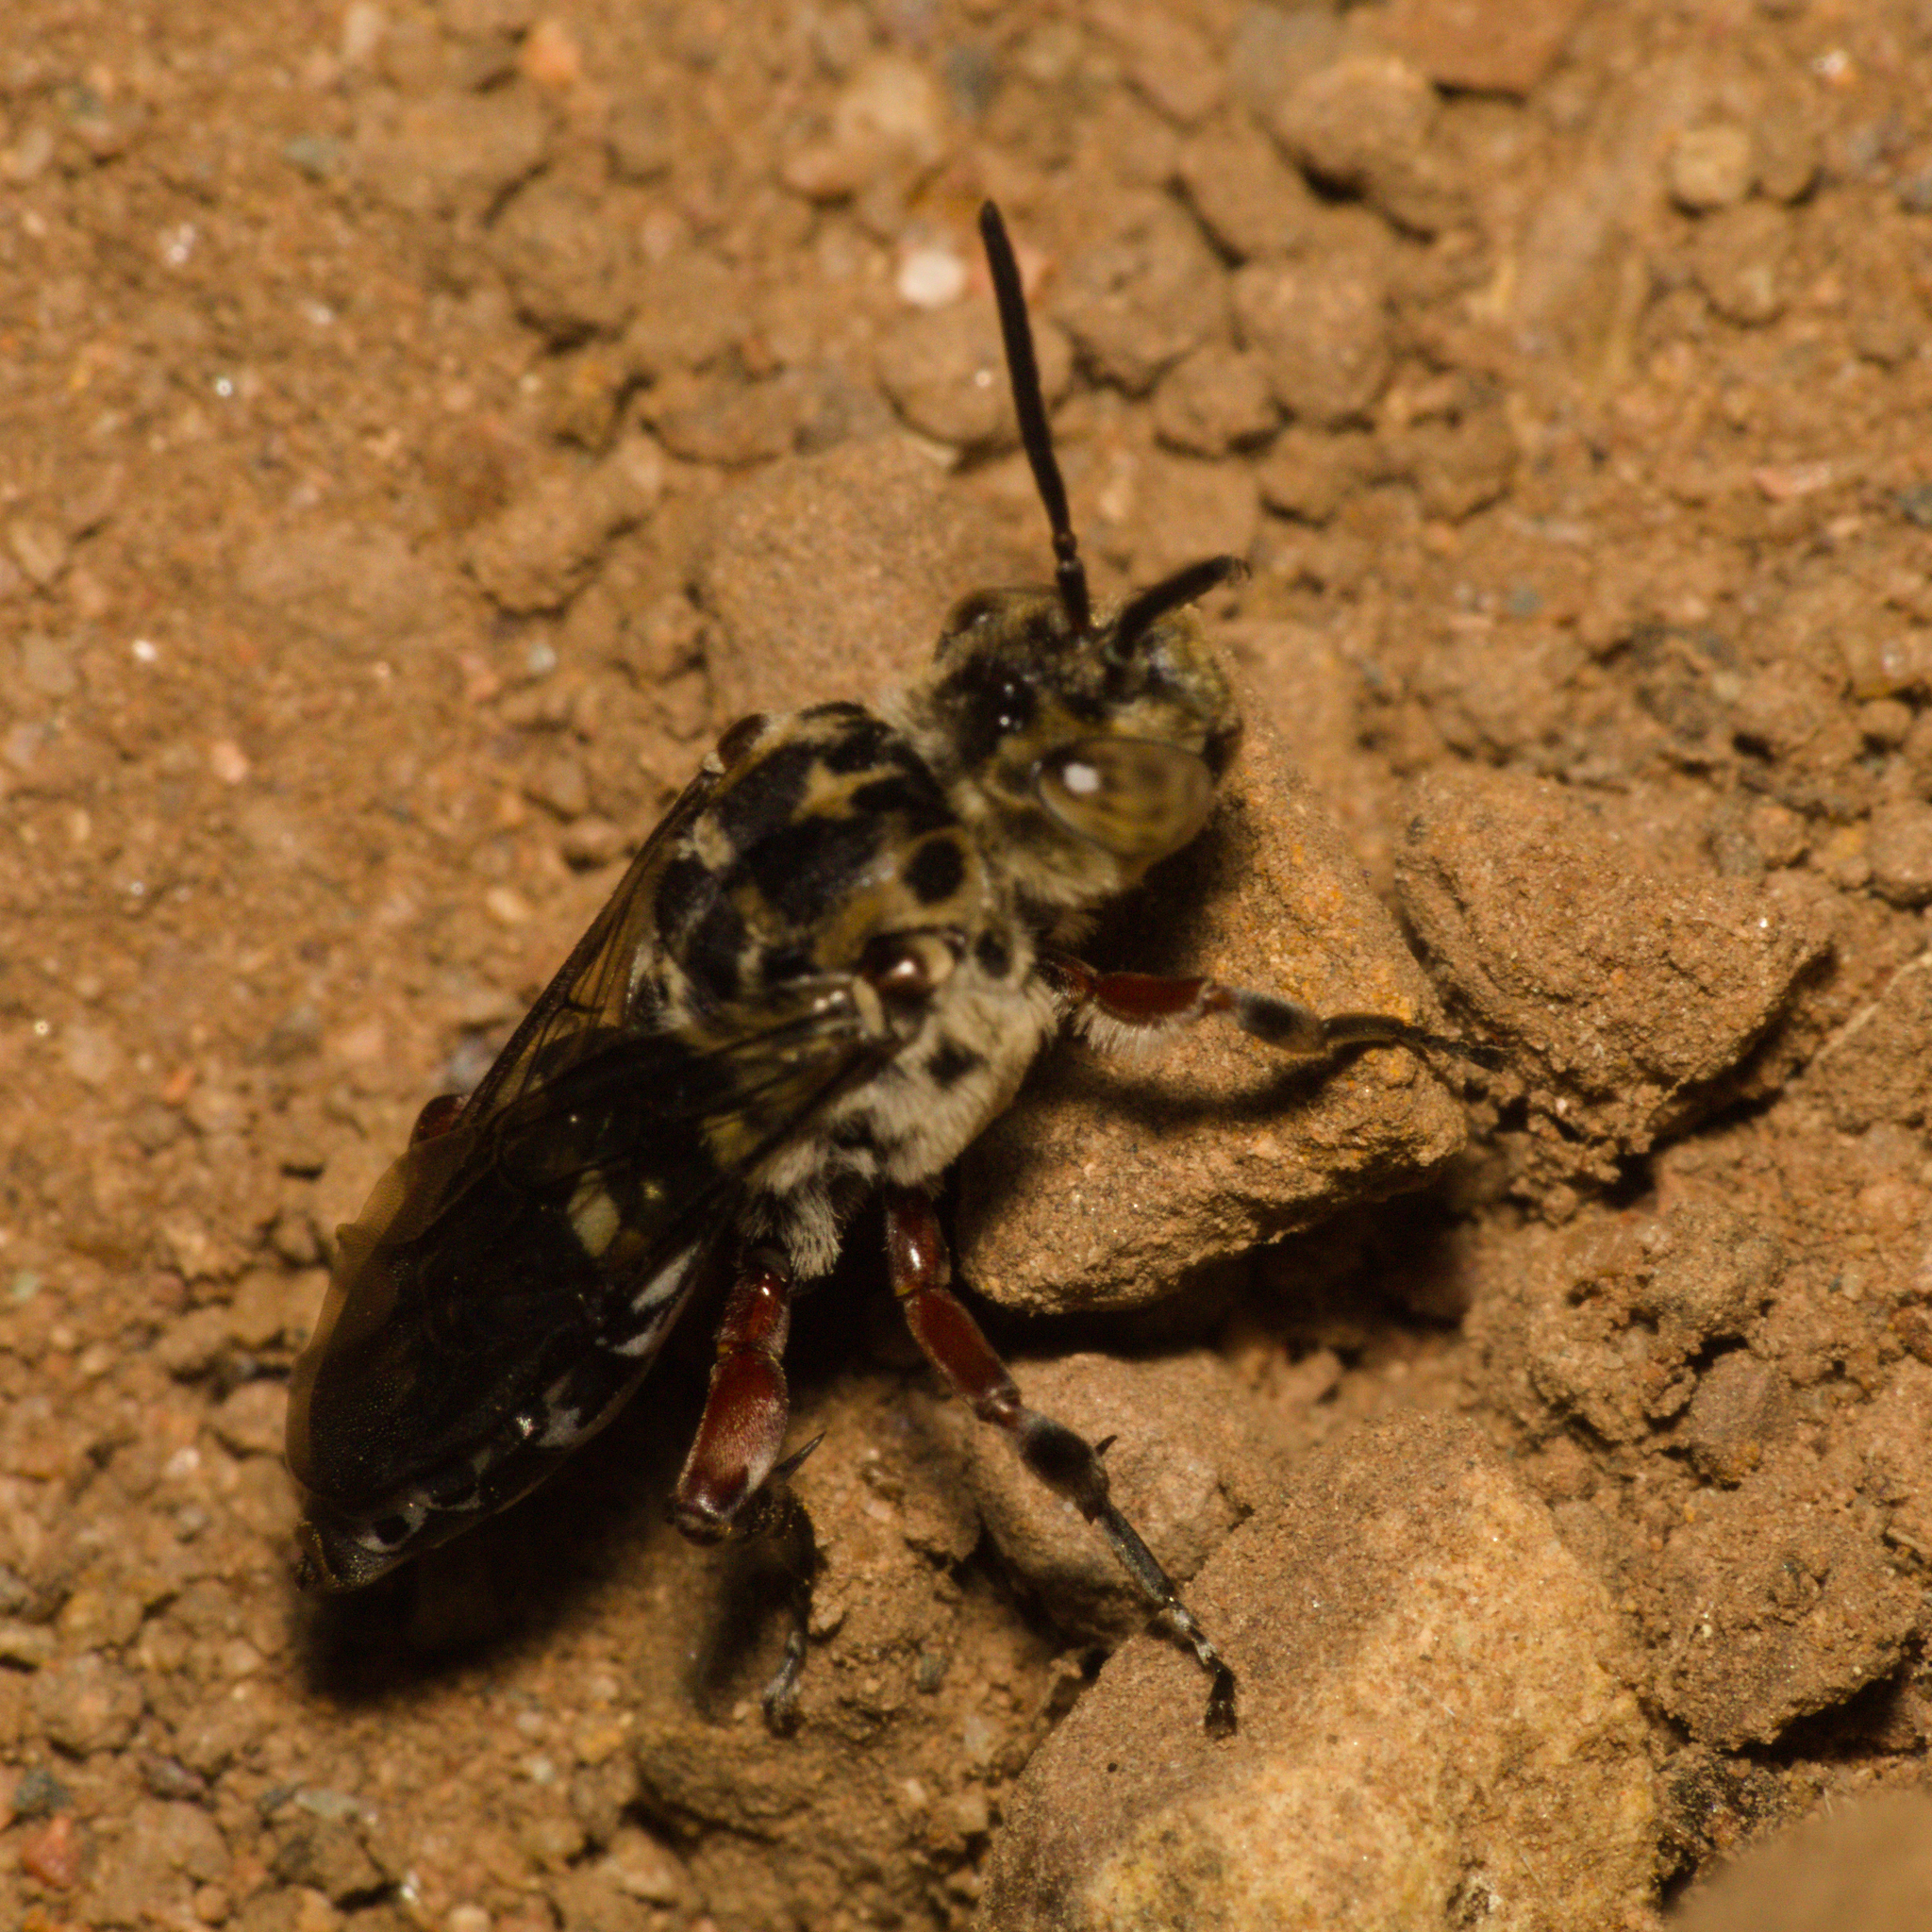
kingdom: Animalia
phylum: Arthropoda
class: Insecta
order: Hymenoptera
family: Apidae
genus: Leiopodus
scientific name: Leiopodus lacertinus
